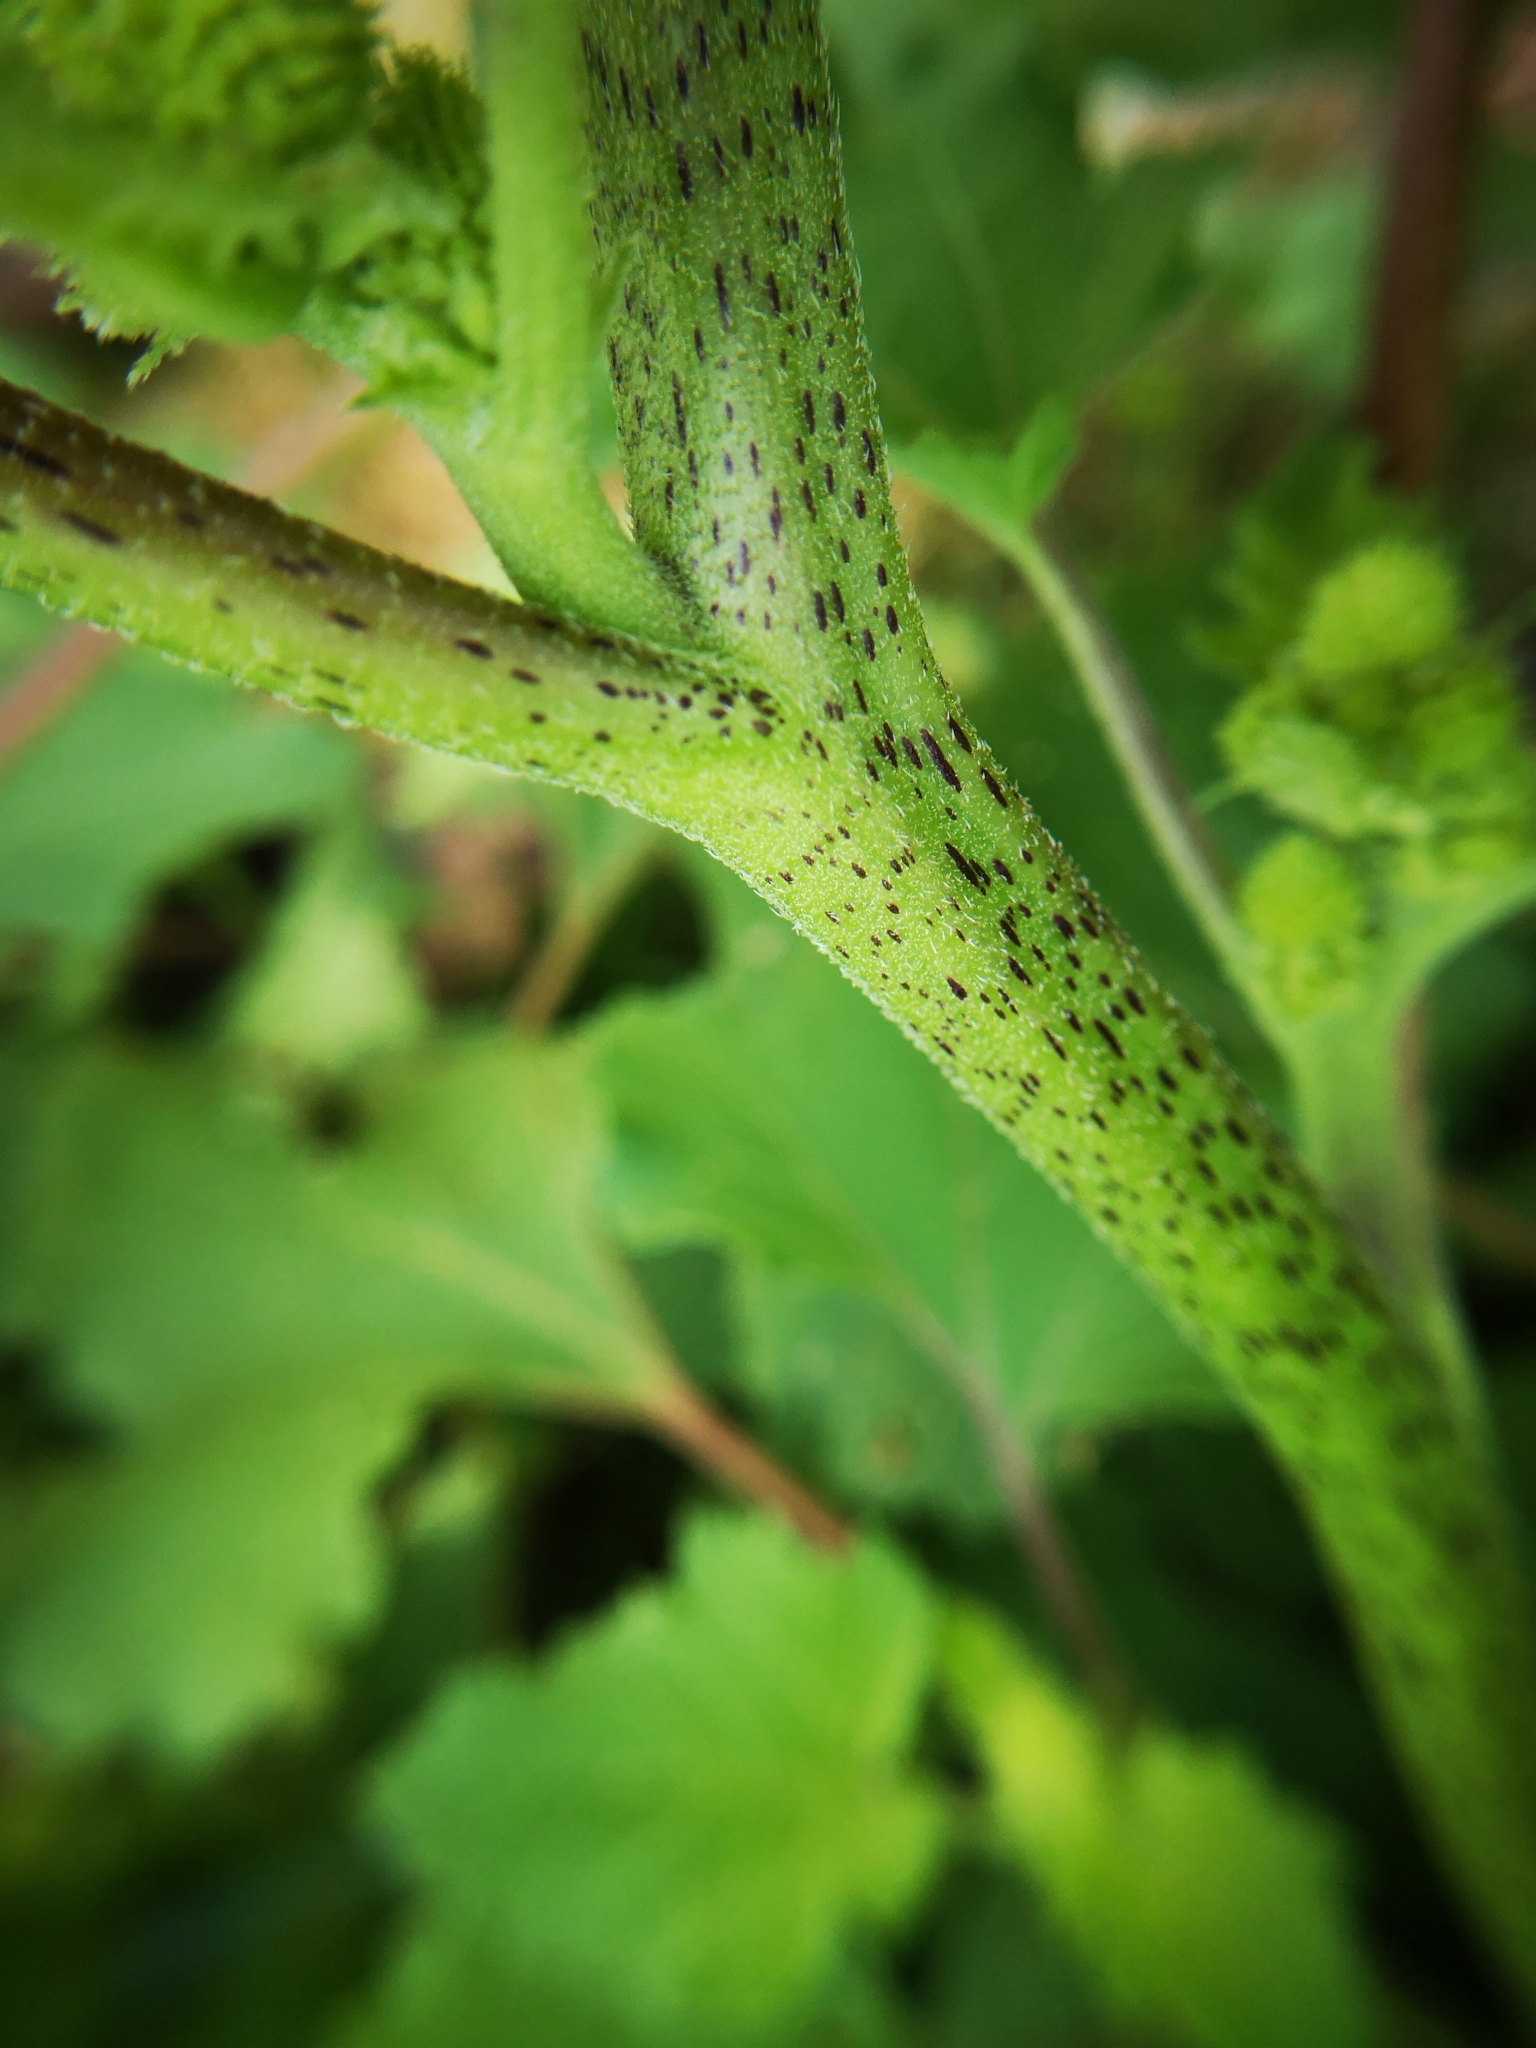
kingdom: Plantae
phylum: Tracheophyta
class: Magnoliopsida
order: Asterales
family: Asteraceae
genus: Xanthium
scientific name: Xanthium strumarium
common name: Rough cocklebur
